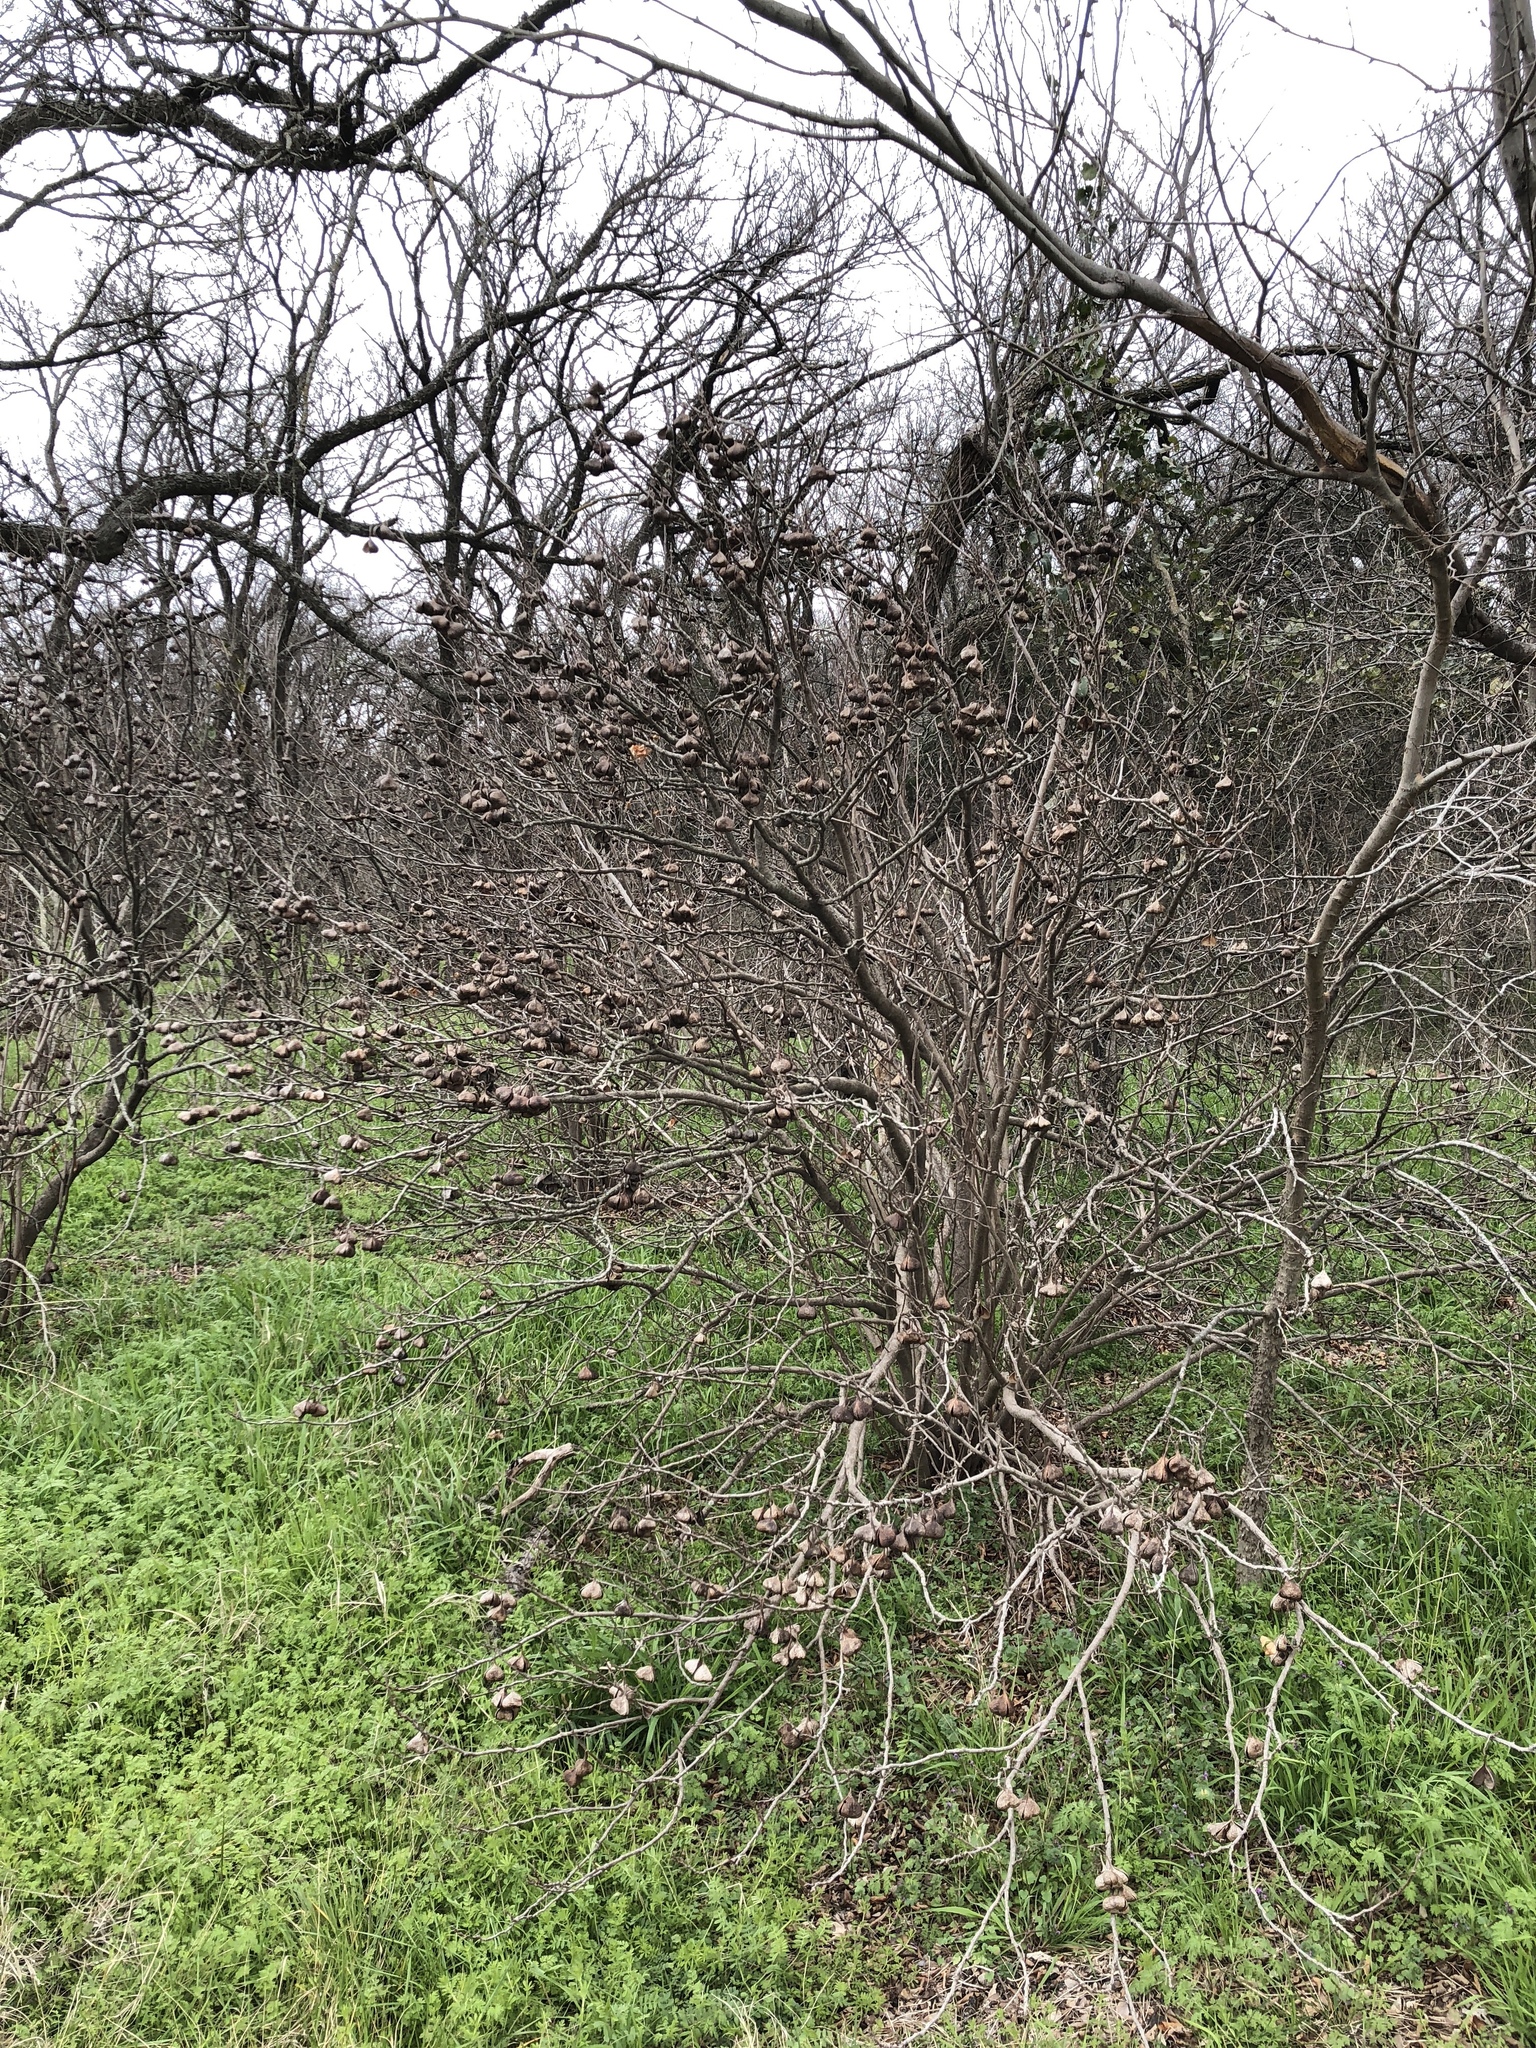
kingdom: Plantae
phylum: Tracheophyta
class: Magnoliopsida
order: Sapindales
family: Sapindaceae
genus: Ungnadia
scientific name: Ungnadia speciosa
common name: Texas-buckeye
